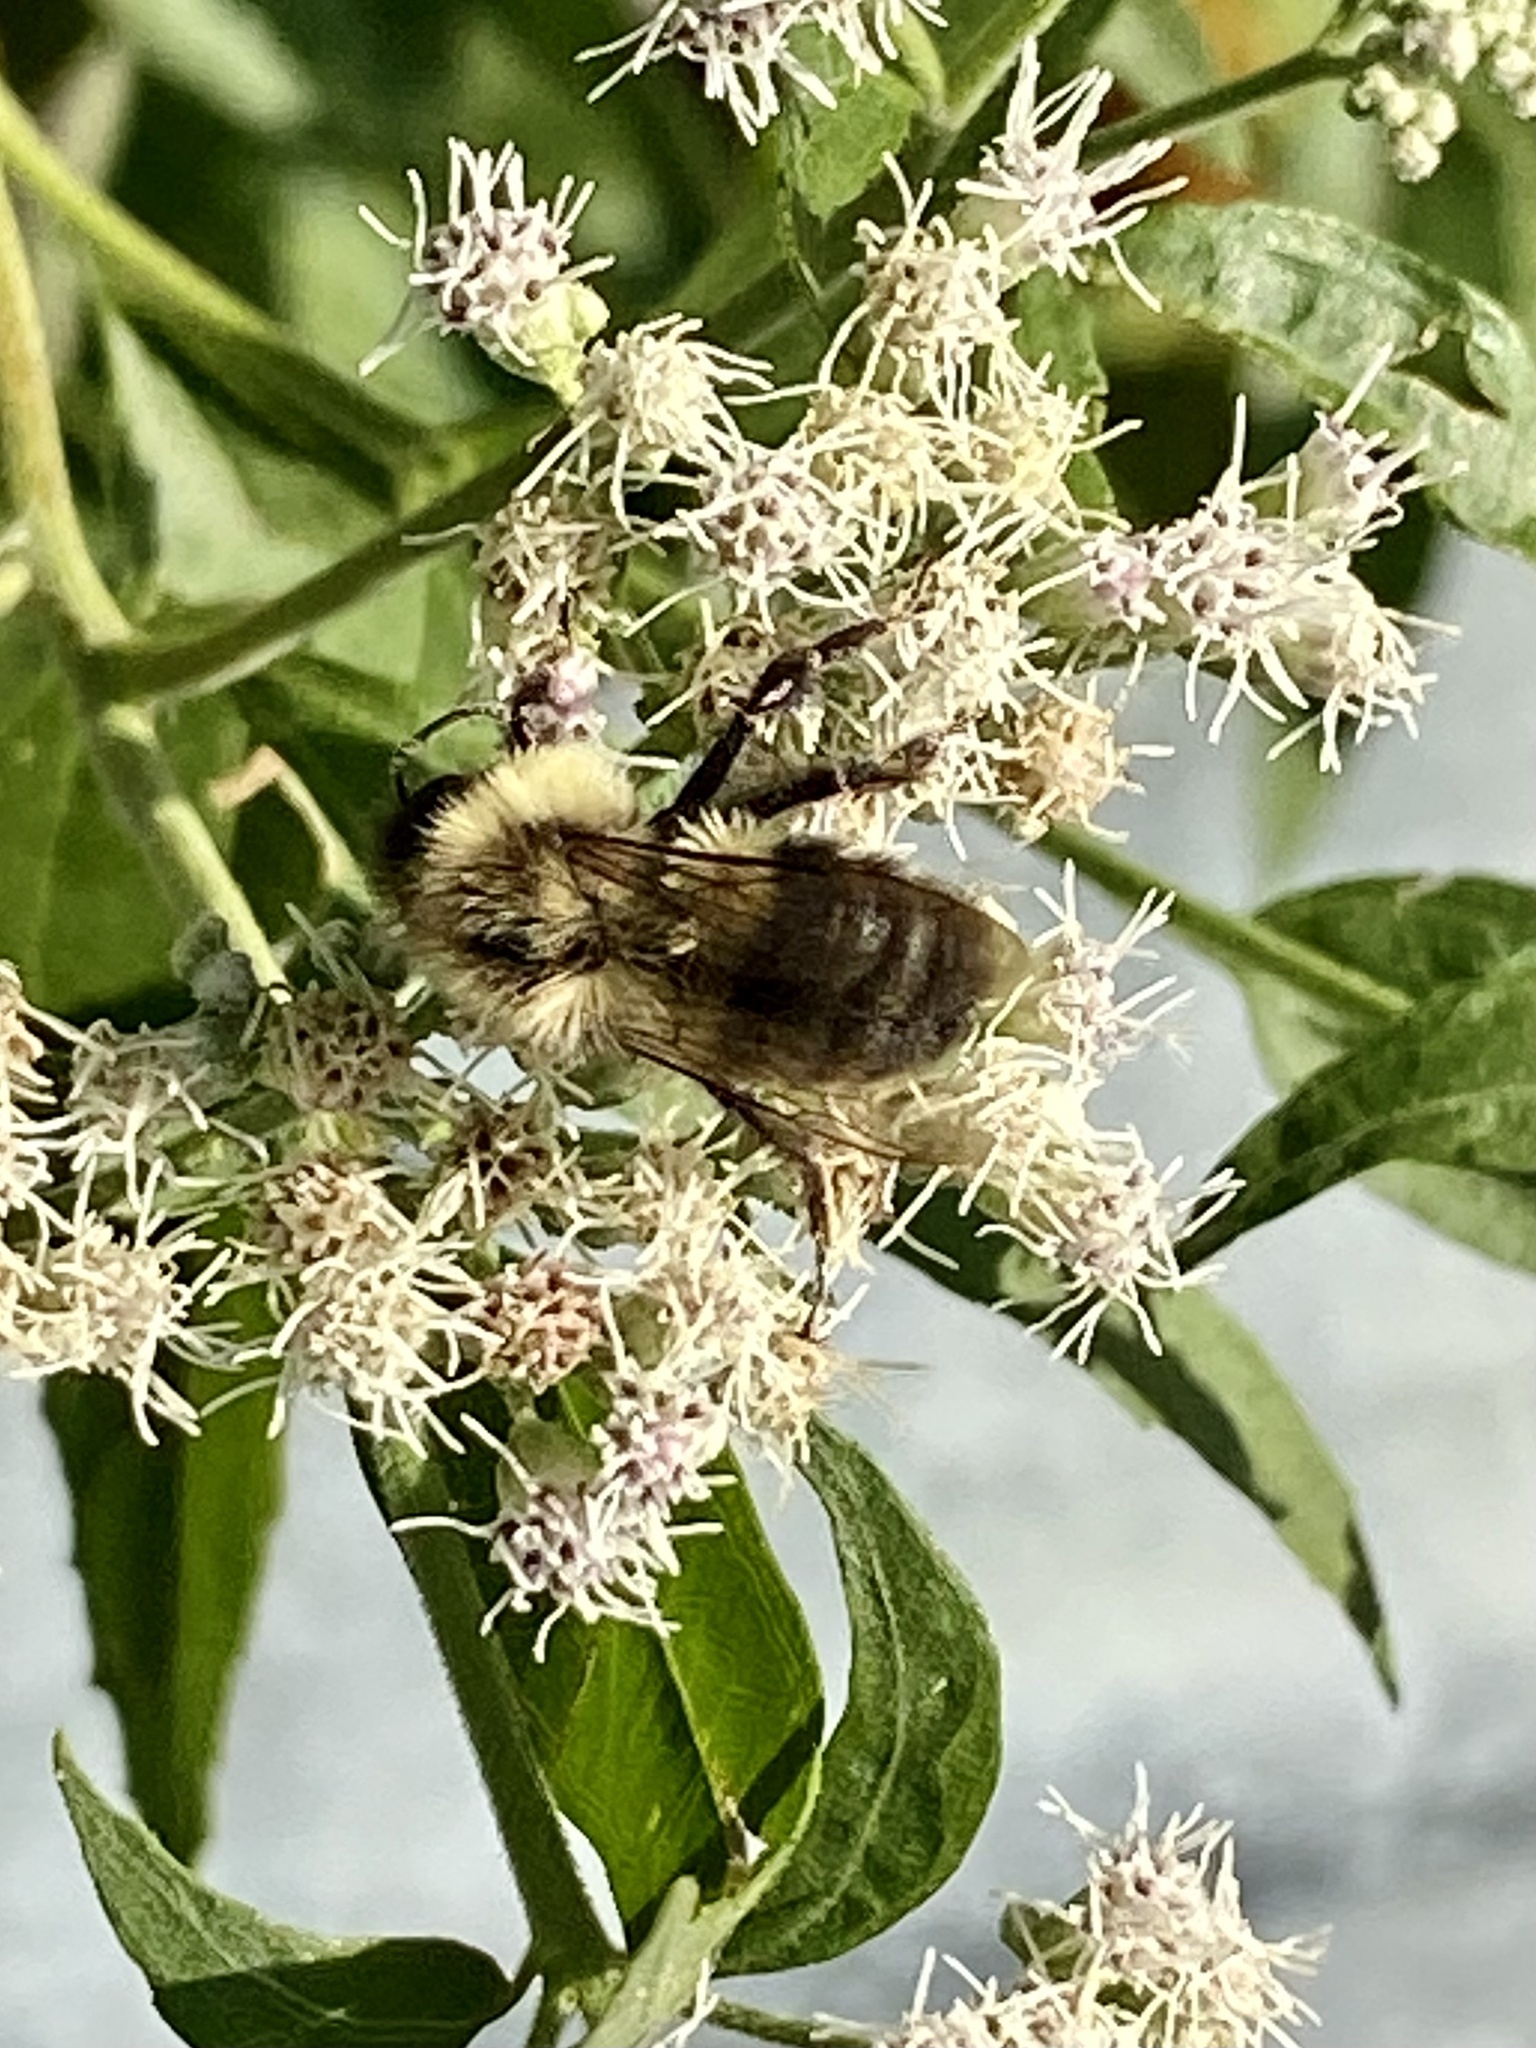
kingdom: Animalia
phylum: Arthropoda
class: Insecta
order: Hymenoptera
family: Apidae
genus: Bombus
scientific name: Bombus impatiens
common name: Common eastern bumble bee
